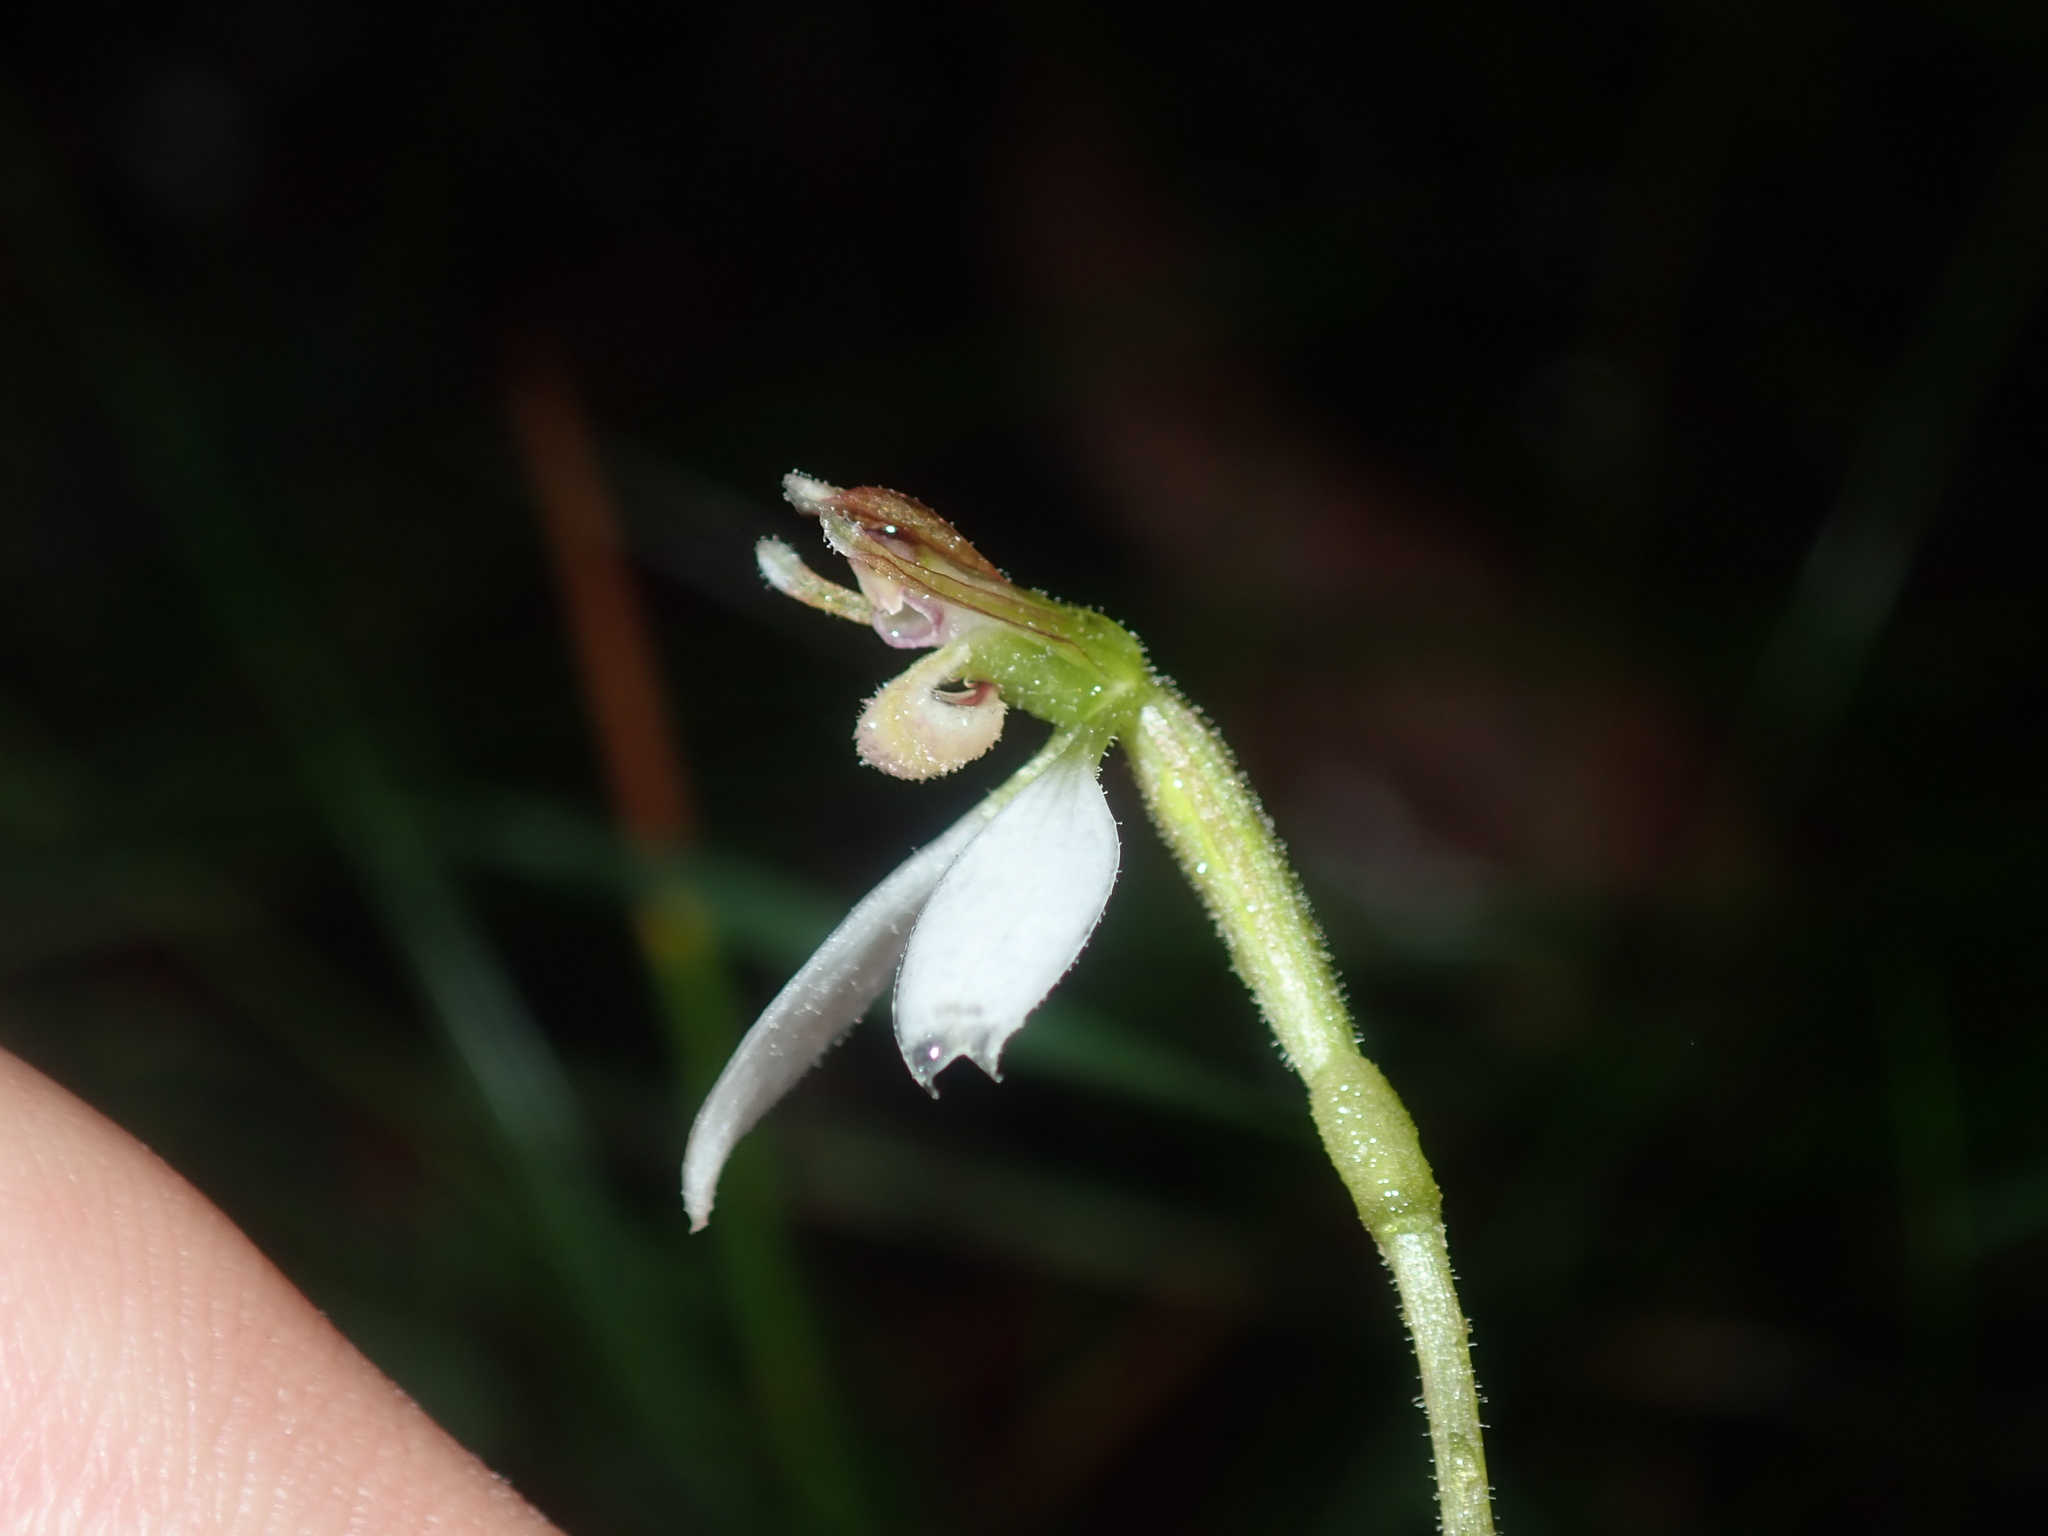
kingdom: Plantae
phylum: Tracheophyta
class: Liliopsida
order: Asparagales
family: Orchidaceae
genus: Eriochilus
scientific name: Eriochilus cucullatus
